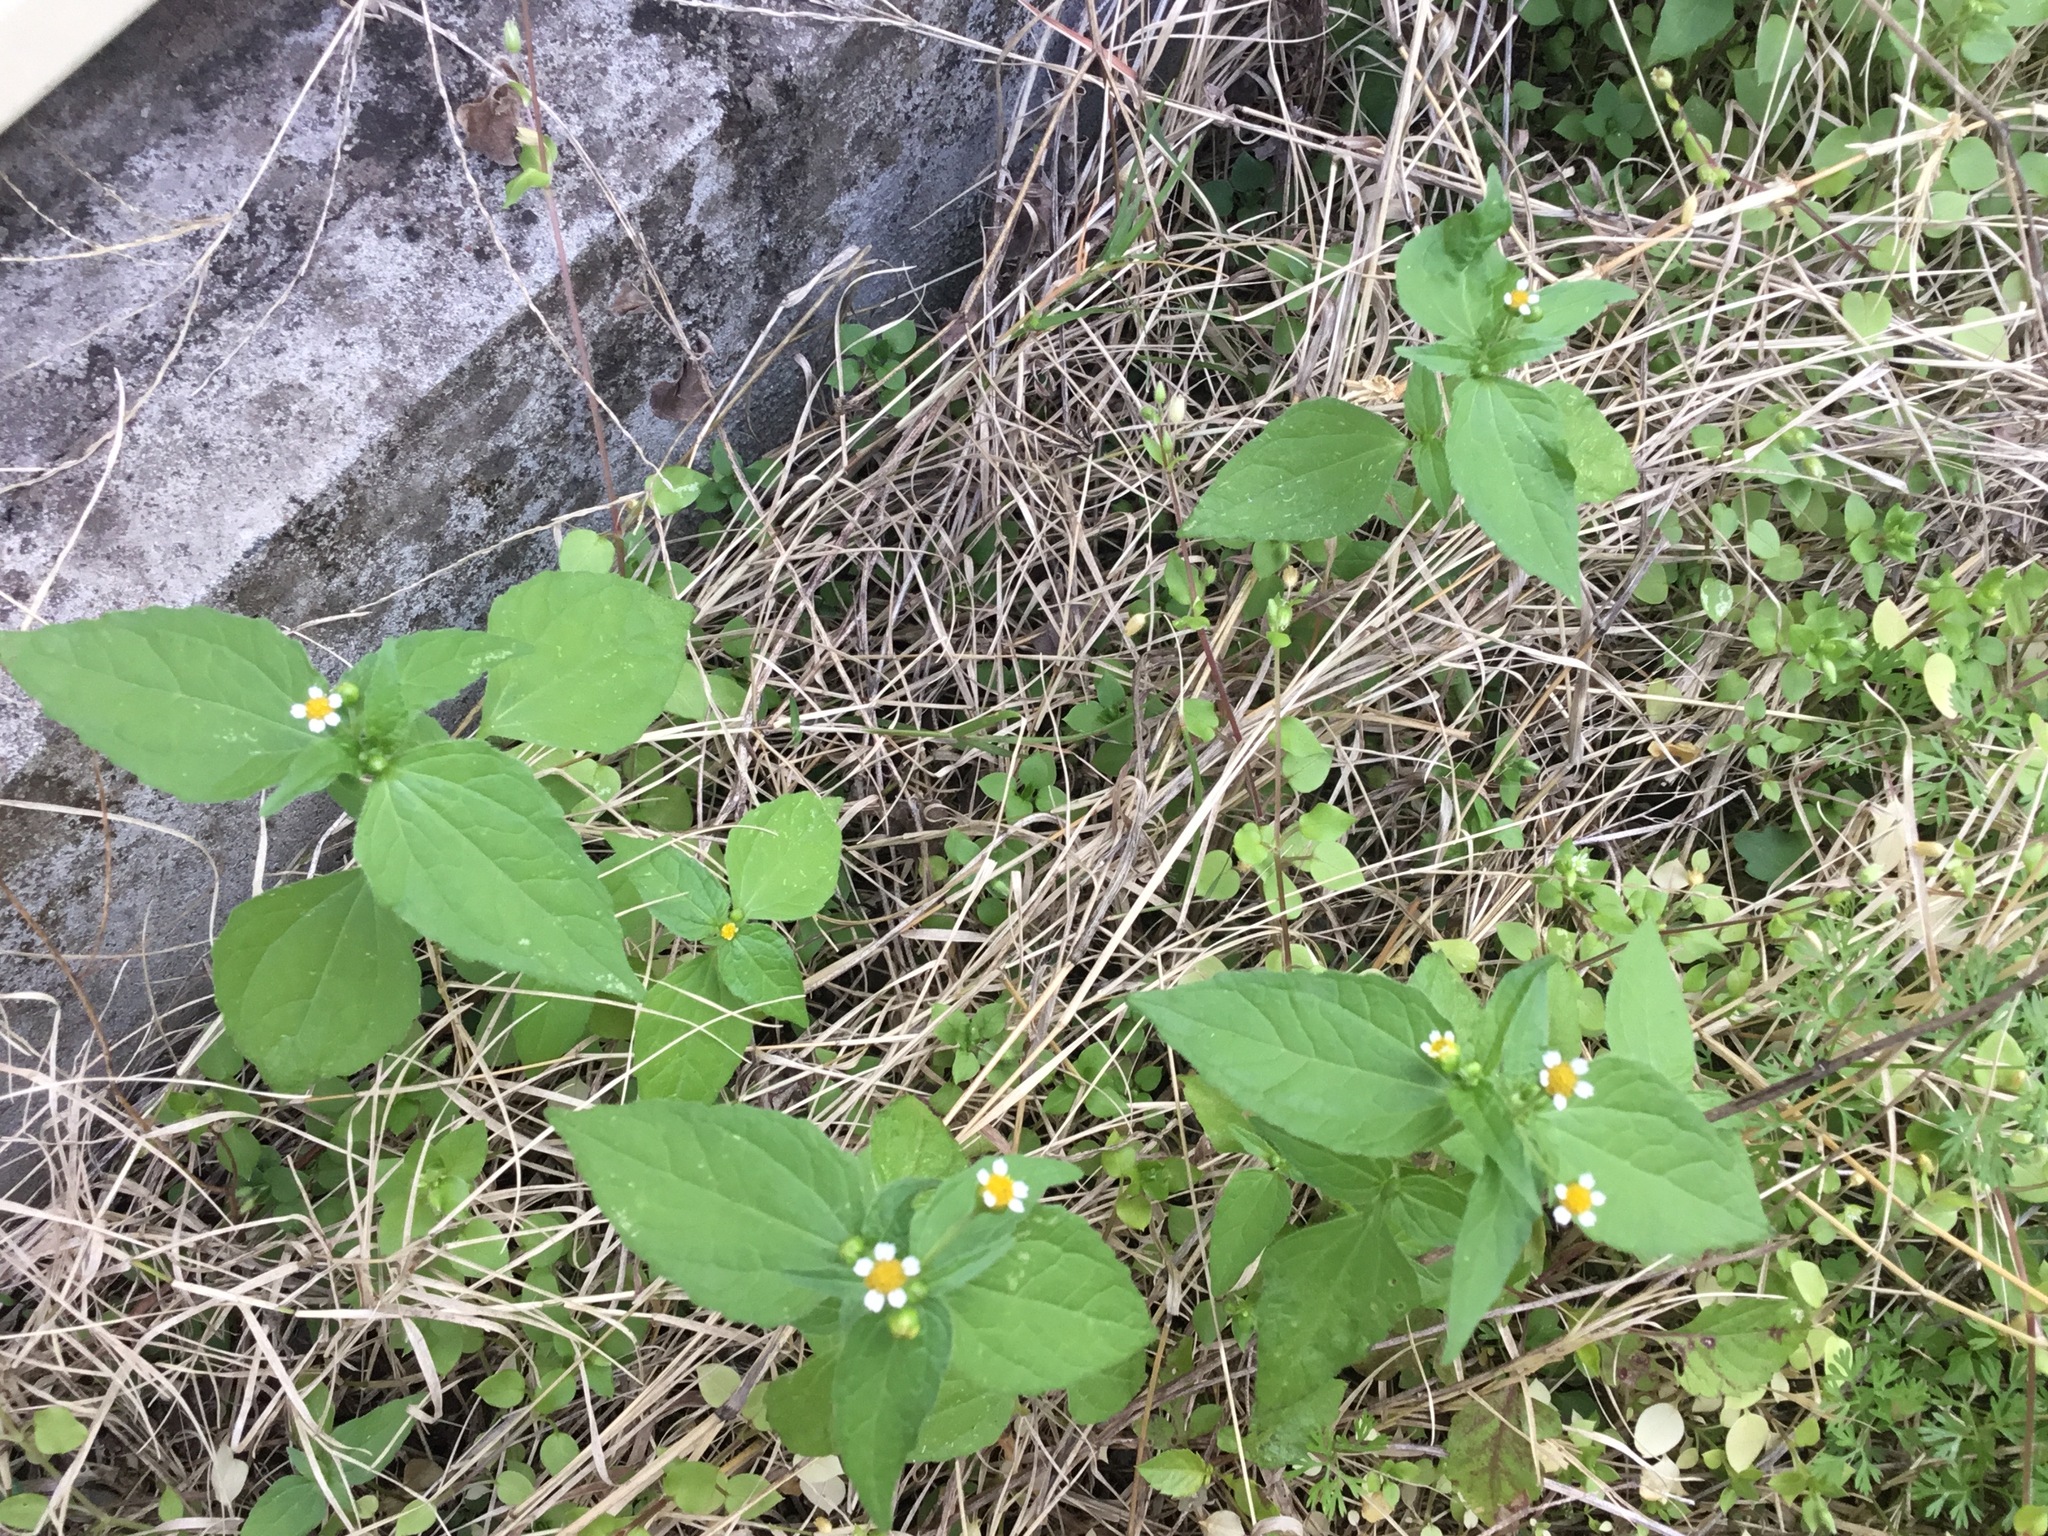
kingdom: Plantae
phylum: Tracheophyta
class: Magnoliopsida
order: Asterales
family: Asteraceae
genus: Galinsoga
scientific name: Galinsoga parviflora
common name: Gallant soldier
